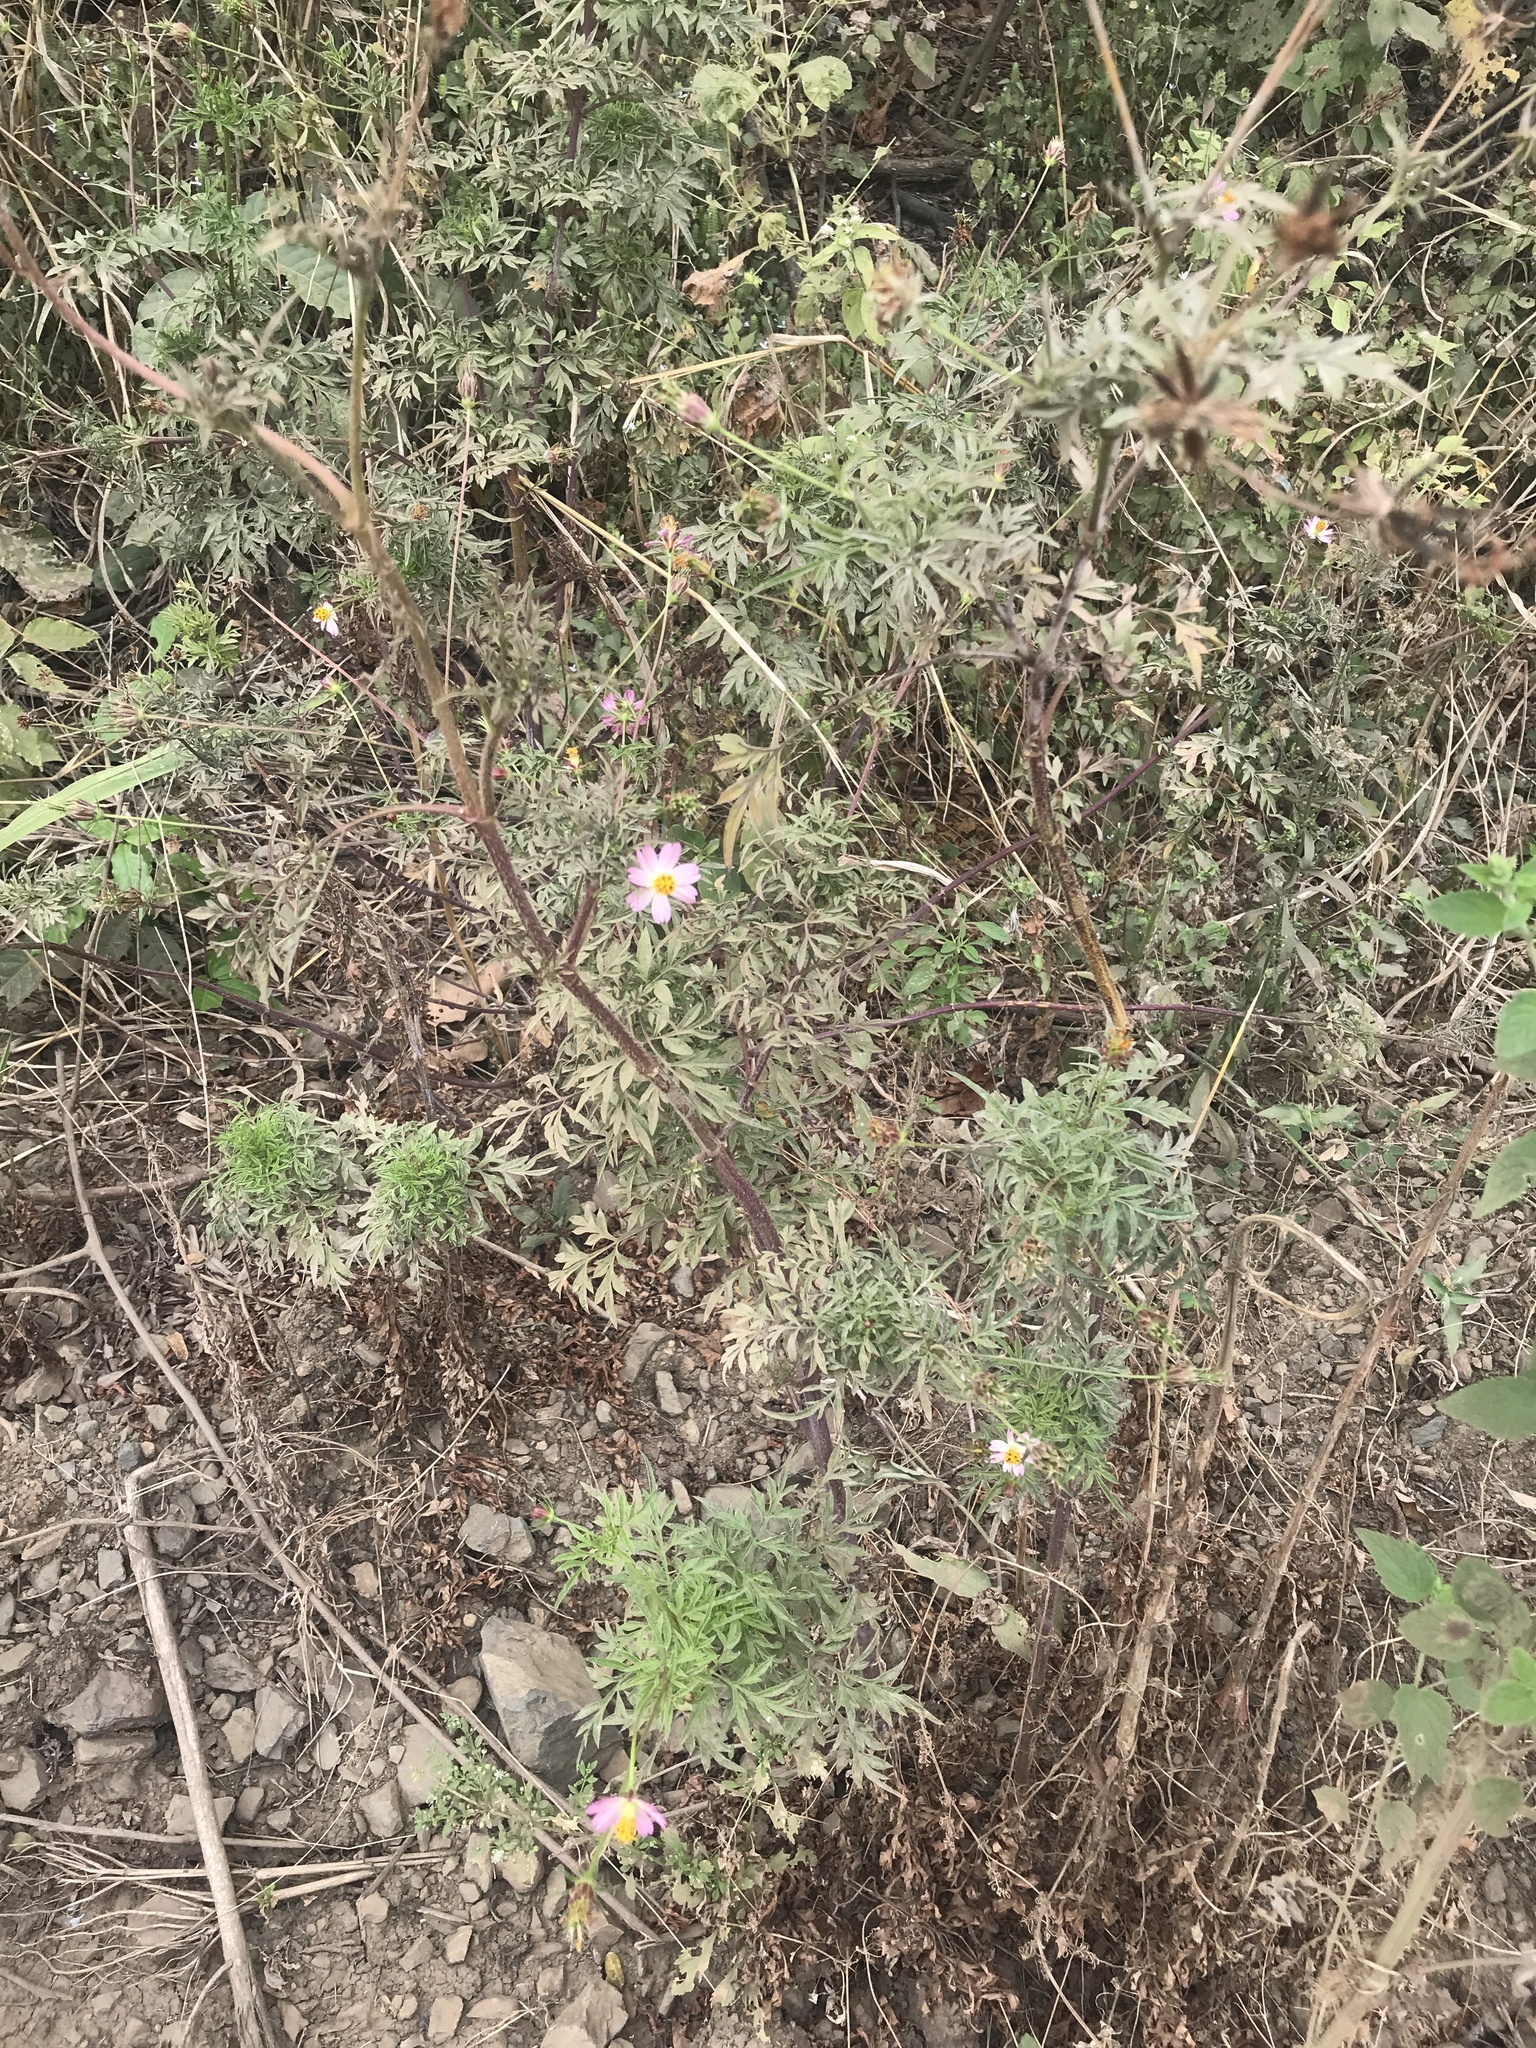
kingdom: Plantae
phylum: Tracheophyta
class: Magnoliopsida
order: Asterales
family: Asteraceae
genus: Cosmos
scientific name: Cosmos caudatus
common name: Wild cosmos
